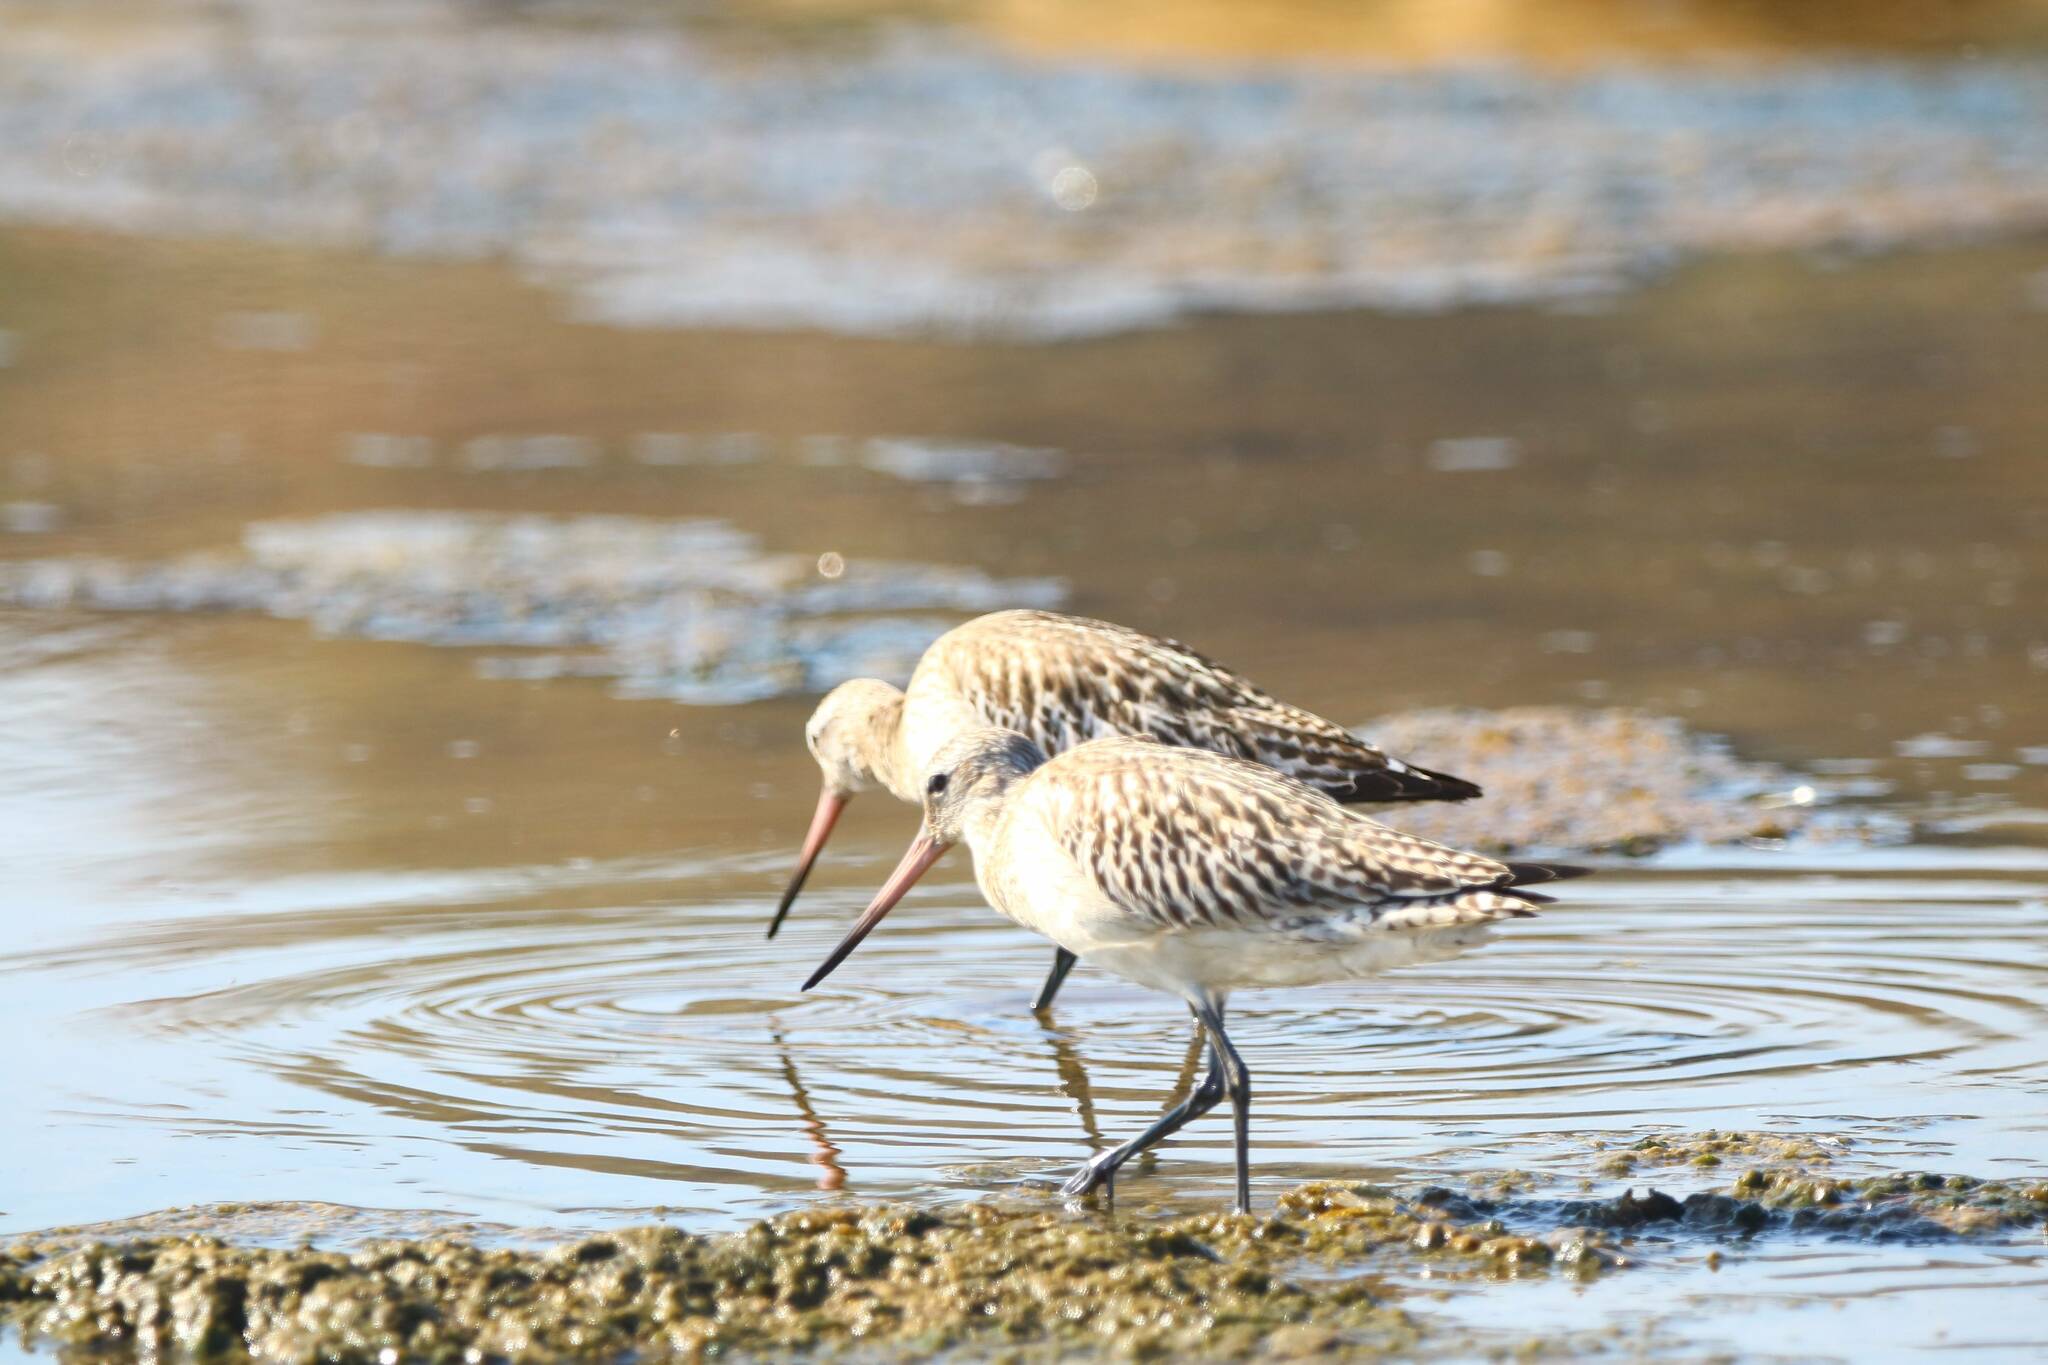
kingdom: Animalia
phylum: Chordata
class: Aves
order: Charadriiformes
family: Scolopacidae
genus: Limosa
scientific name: Limosa lapponica
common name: Bar-tailed godwit
